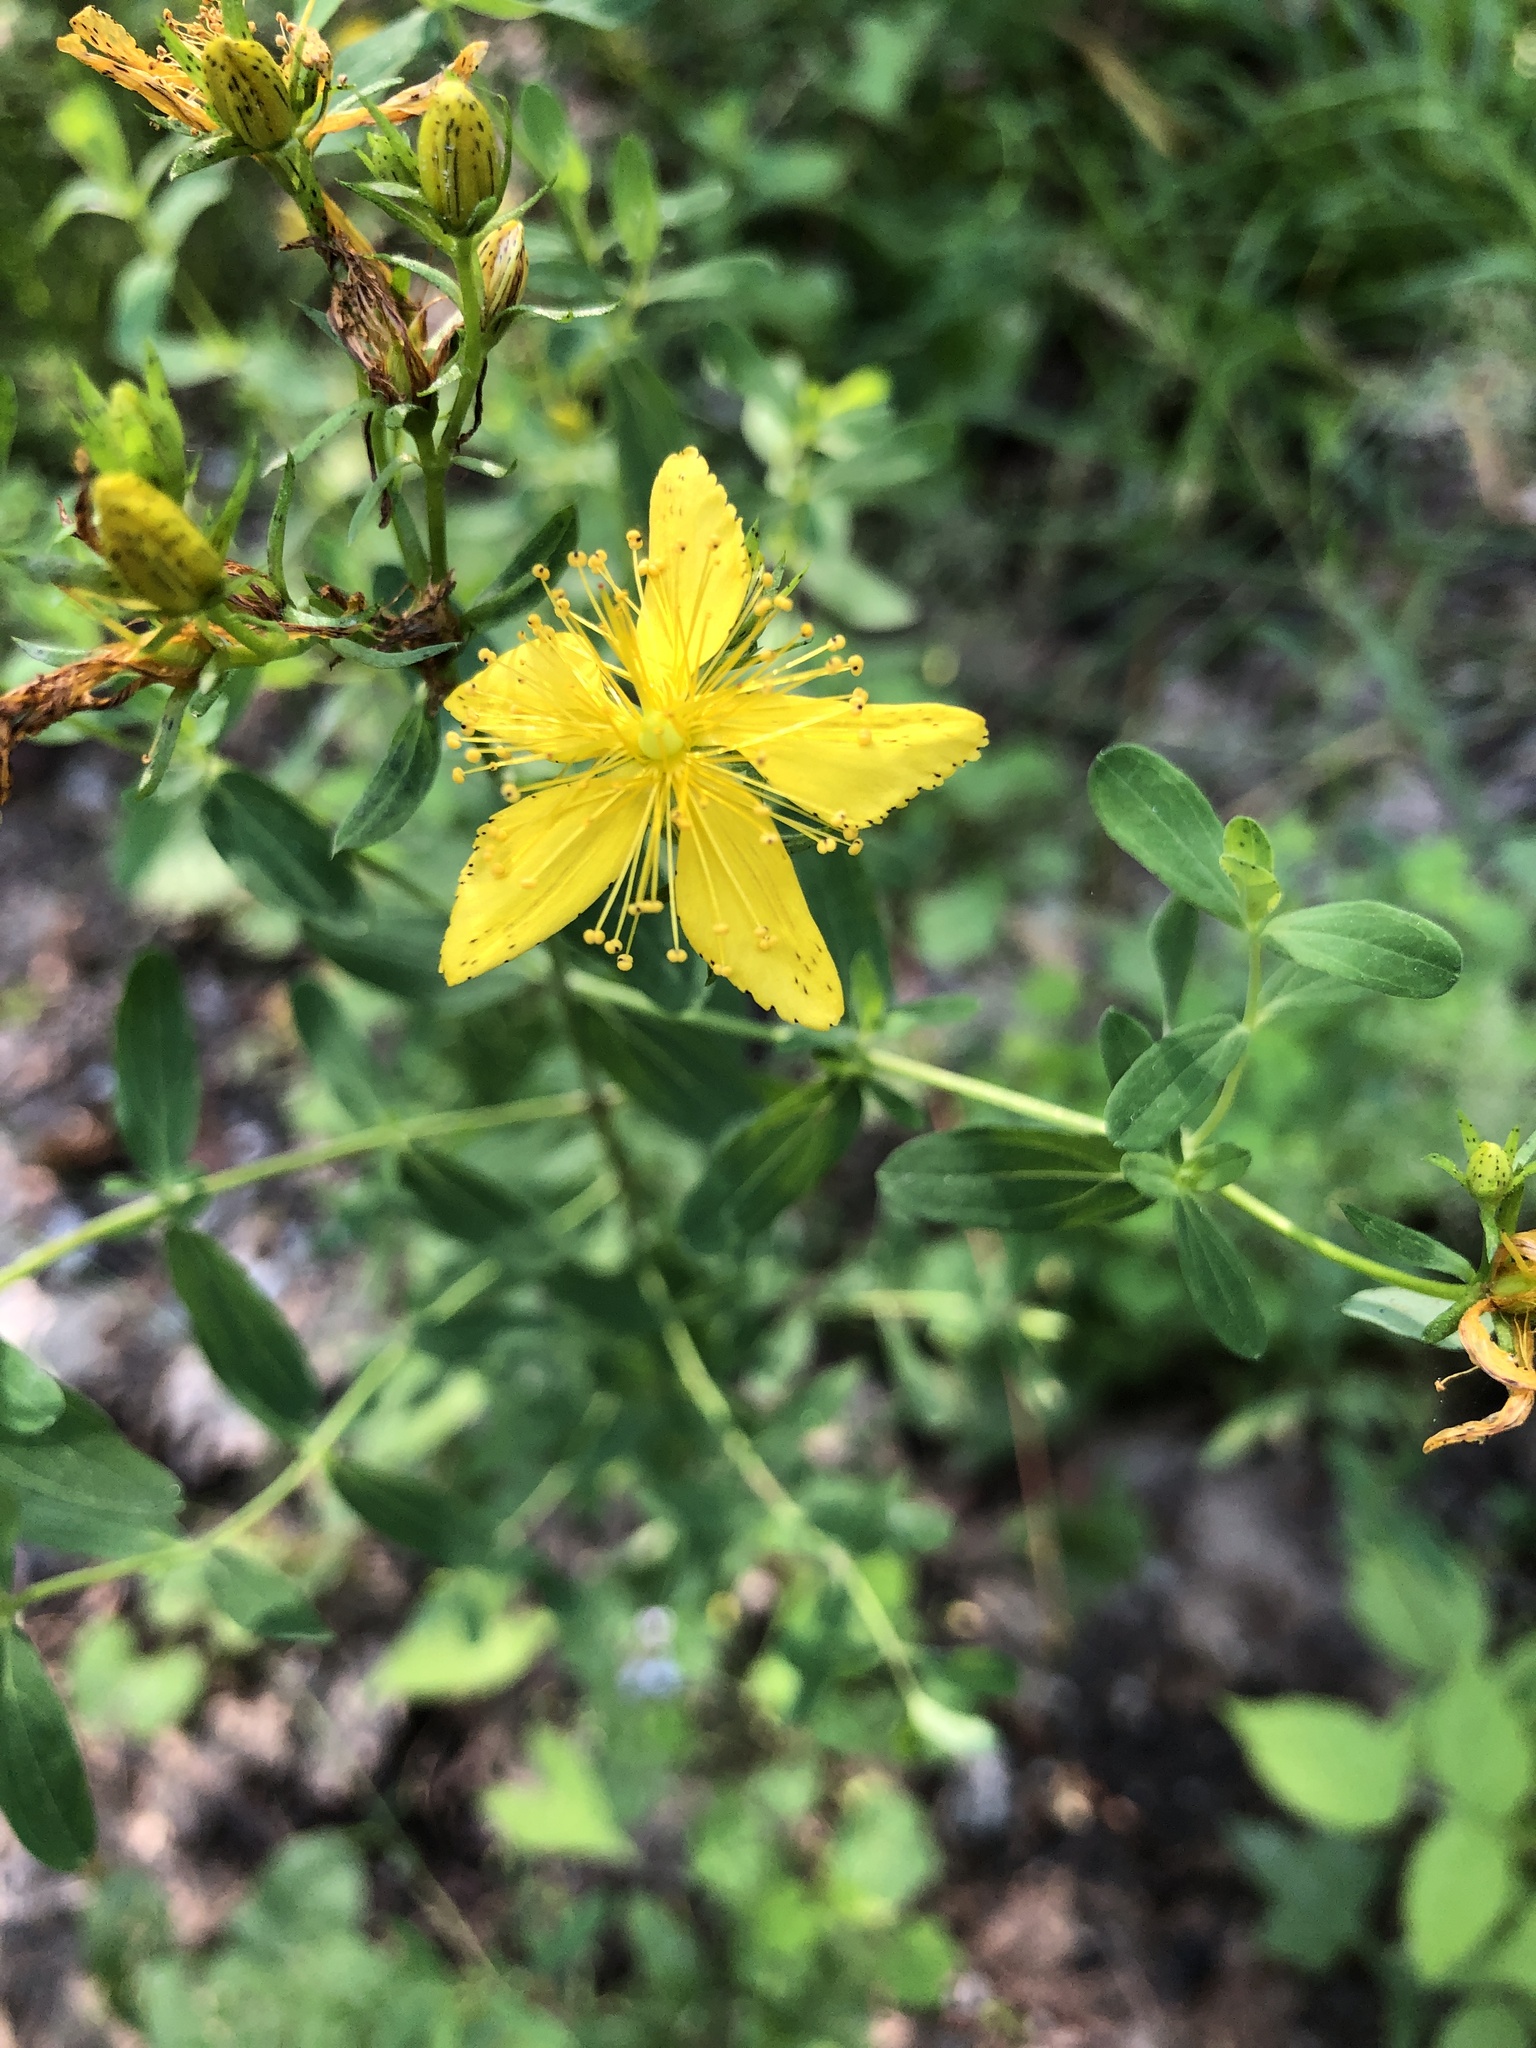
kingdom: Plantae
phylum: Tracheophyta
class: Magnoliopsida
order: Malpighiales
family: Hypericaceae
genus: Hypericum
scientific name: Hypericum perforatum
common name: Common st. johnswort
